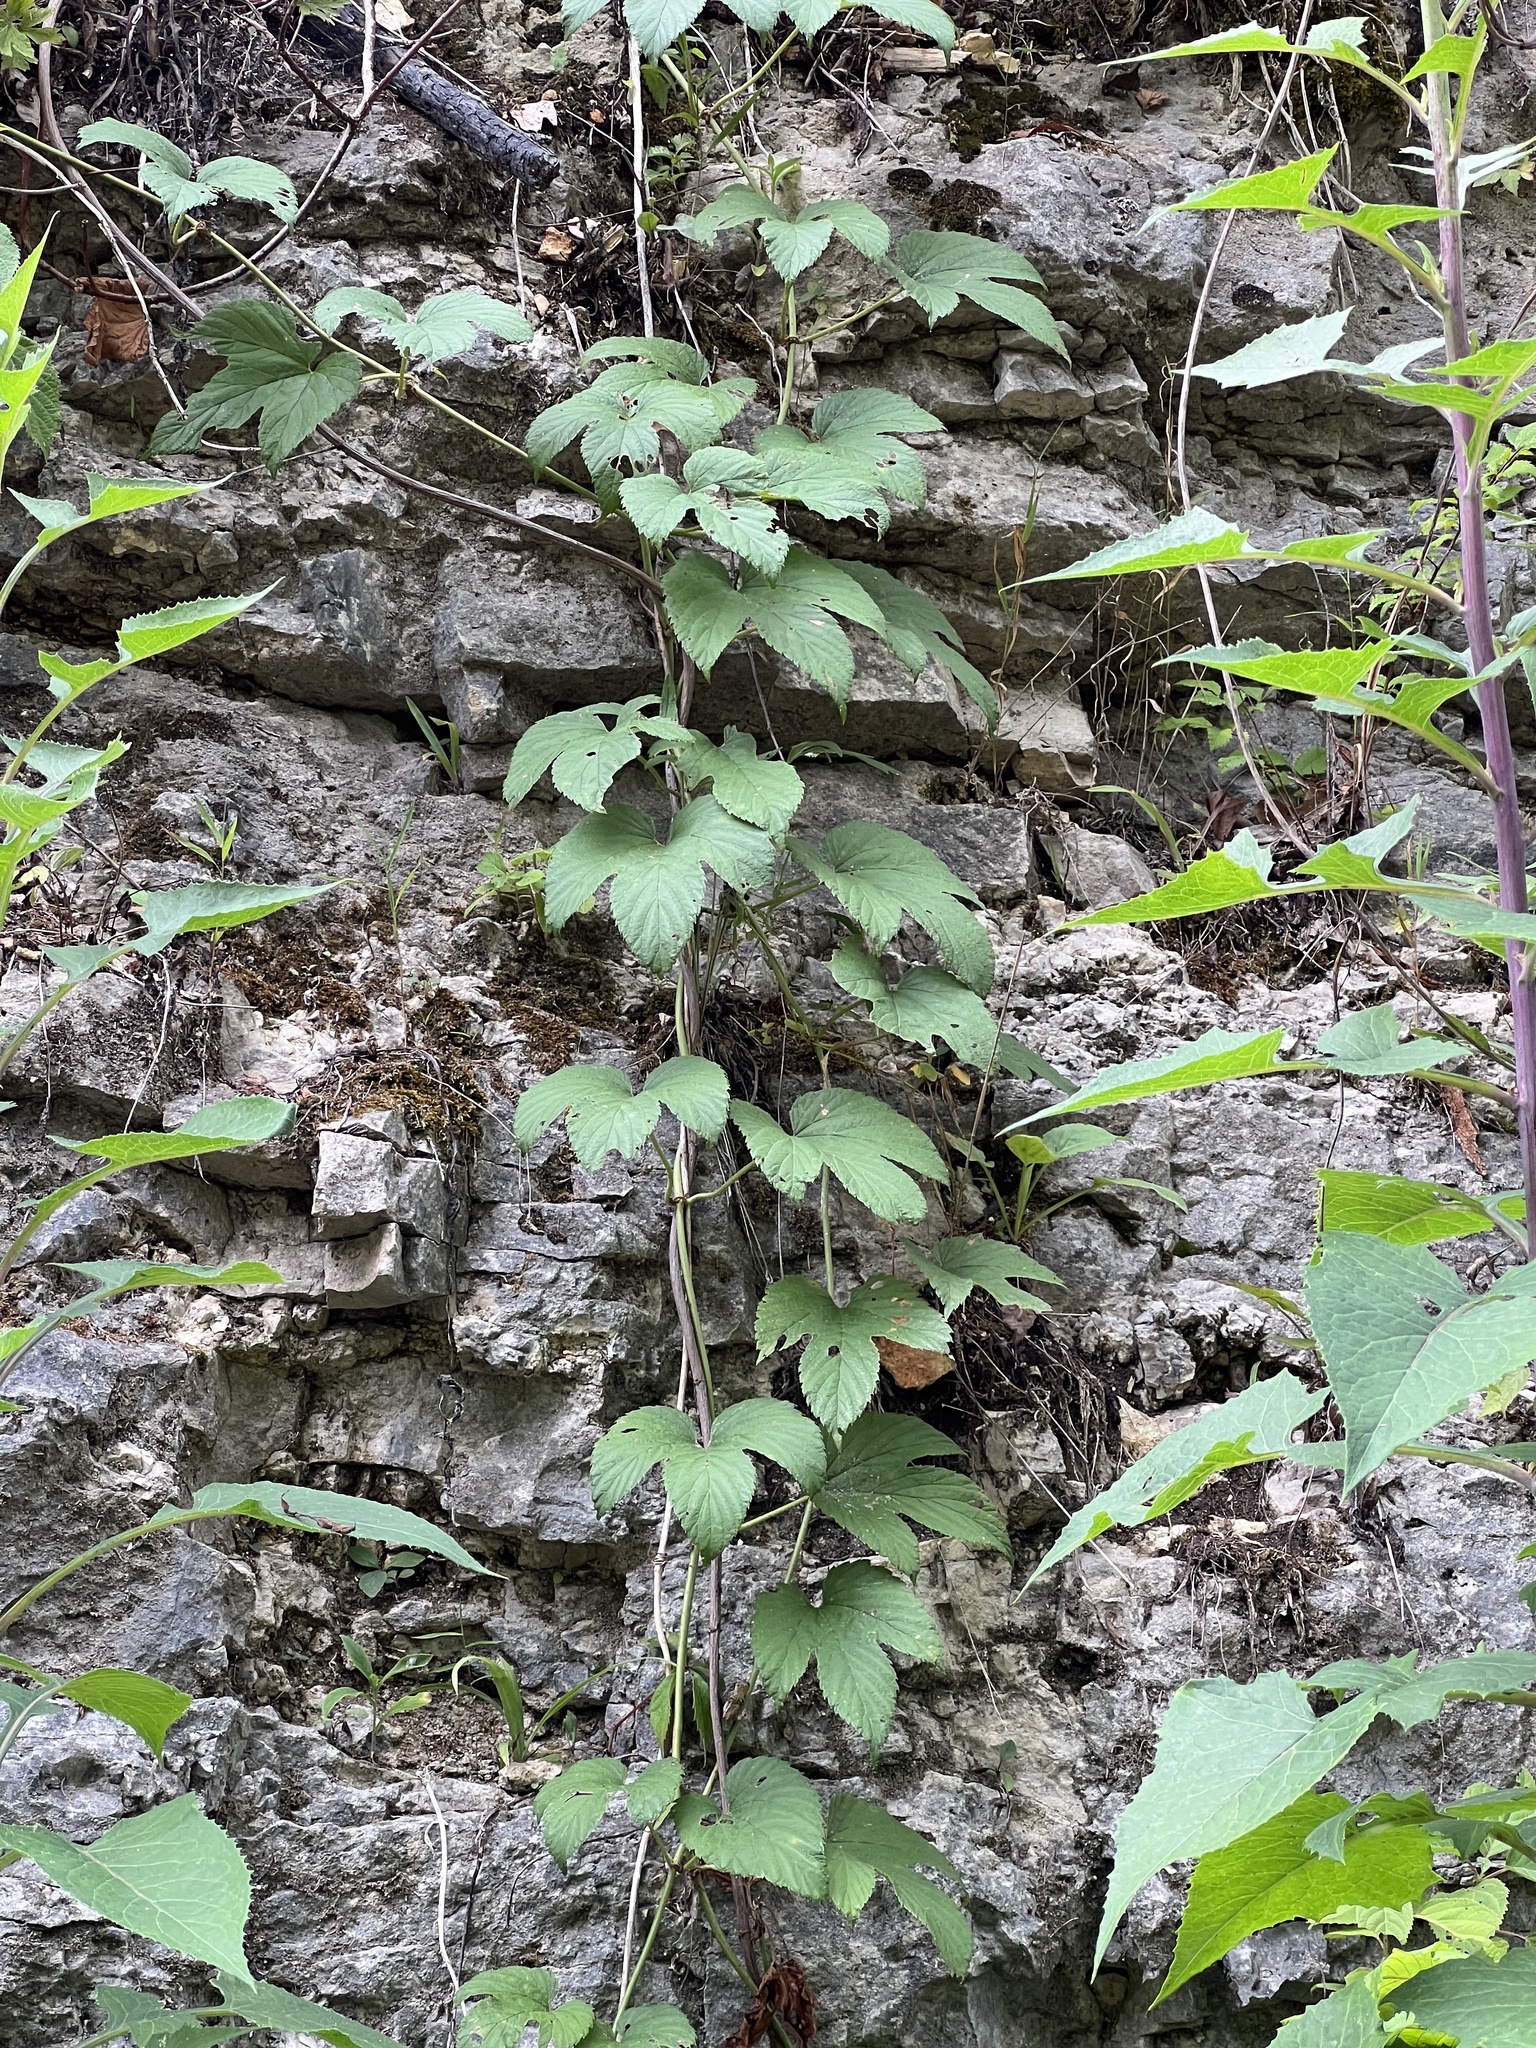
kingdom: Plantae
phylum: Tracheophyta
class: Magnoliopsida
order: Rosales
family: Cannabaceae
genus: Humulus
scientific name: Humulus lupulus
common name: Hop
